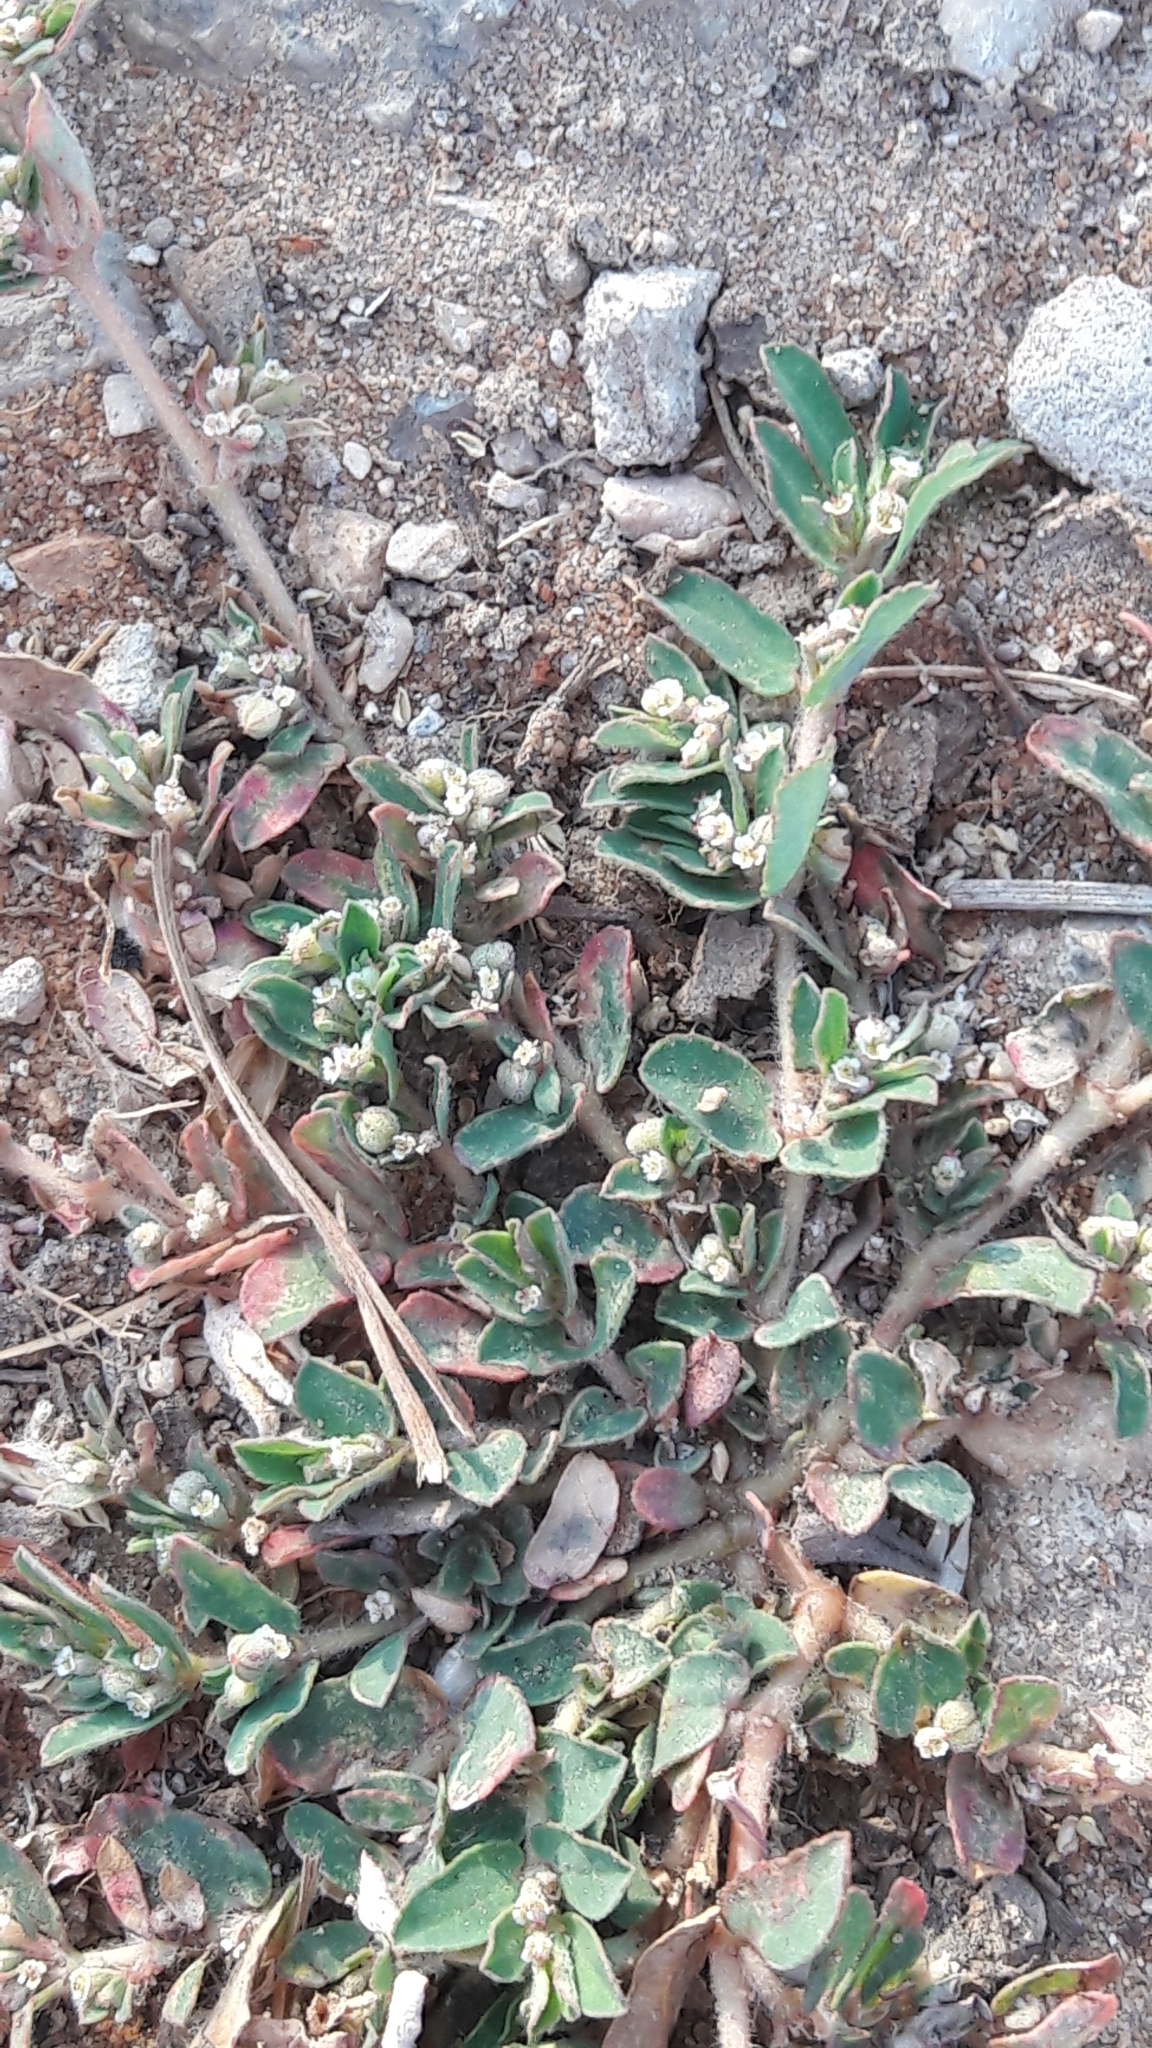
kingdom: Plantae
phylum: Tracheophyta
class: Magnoliopsida
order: Malpighiales
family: Euphorbiaceae
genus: Euphorbia
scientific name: Euphorbia maculata
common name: Spotted spurge
